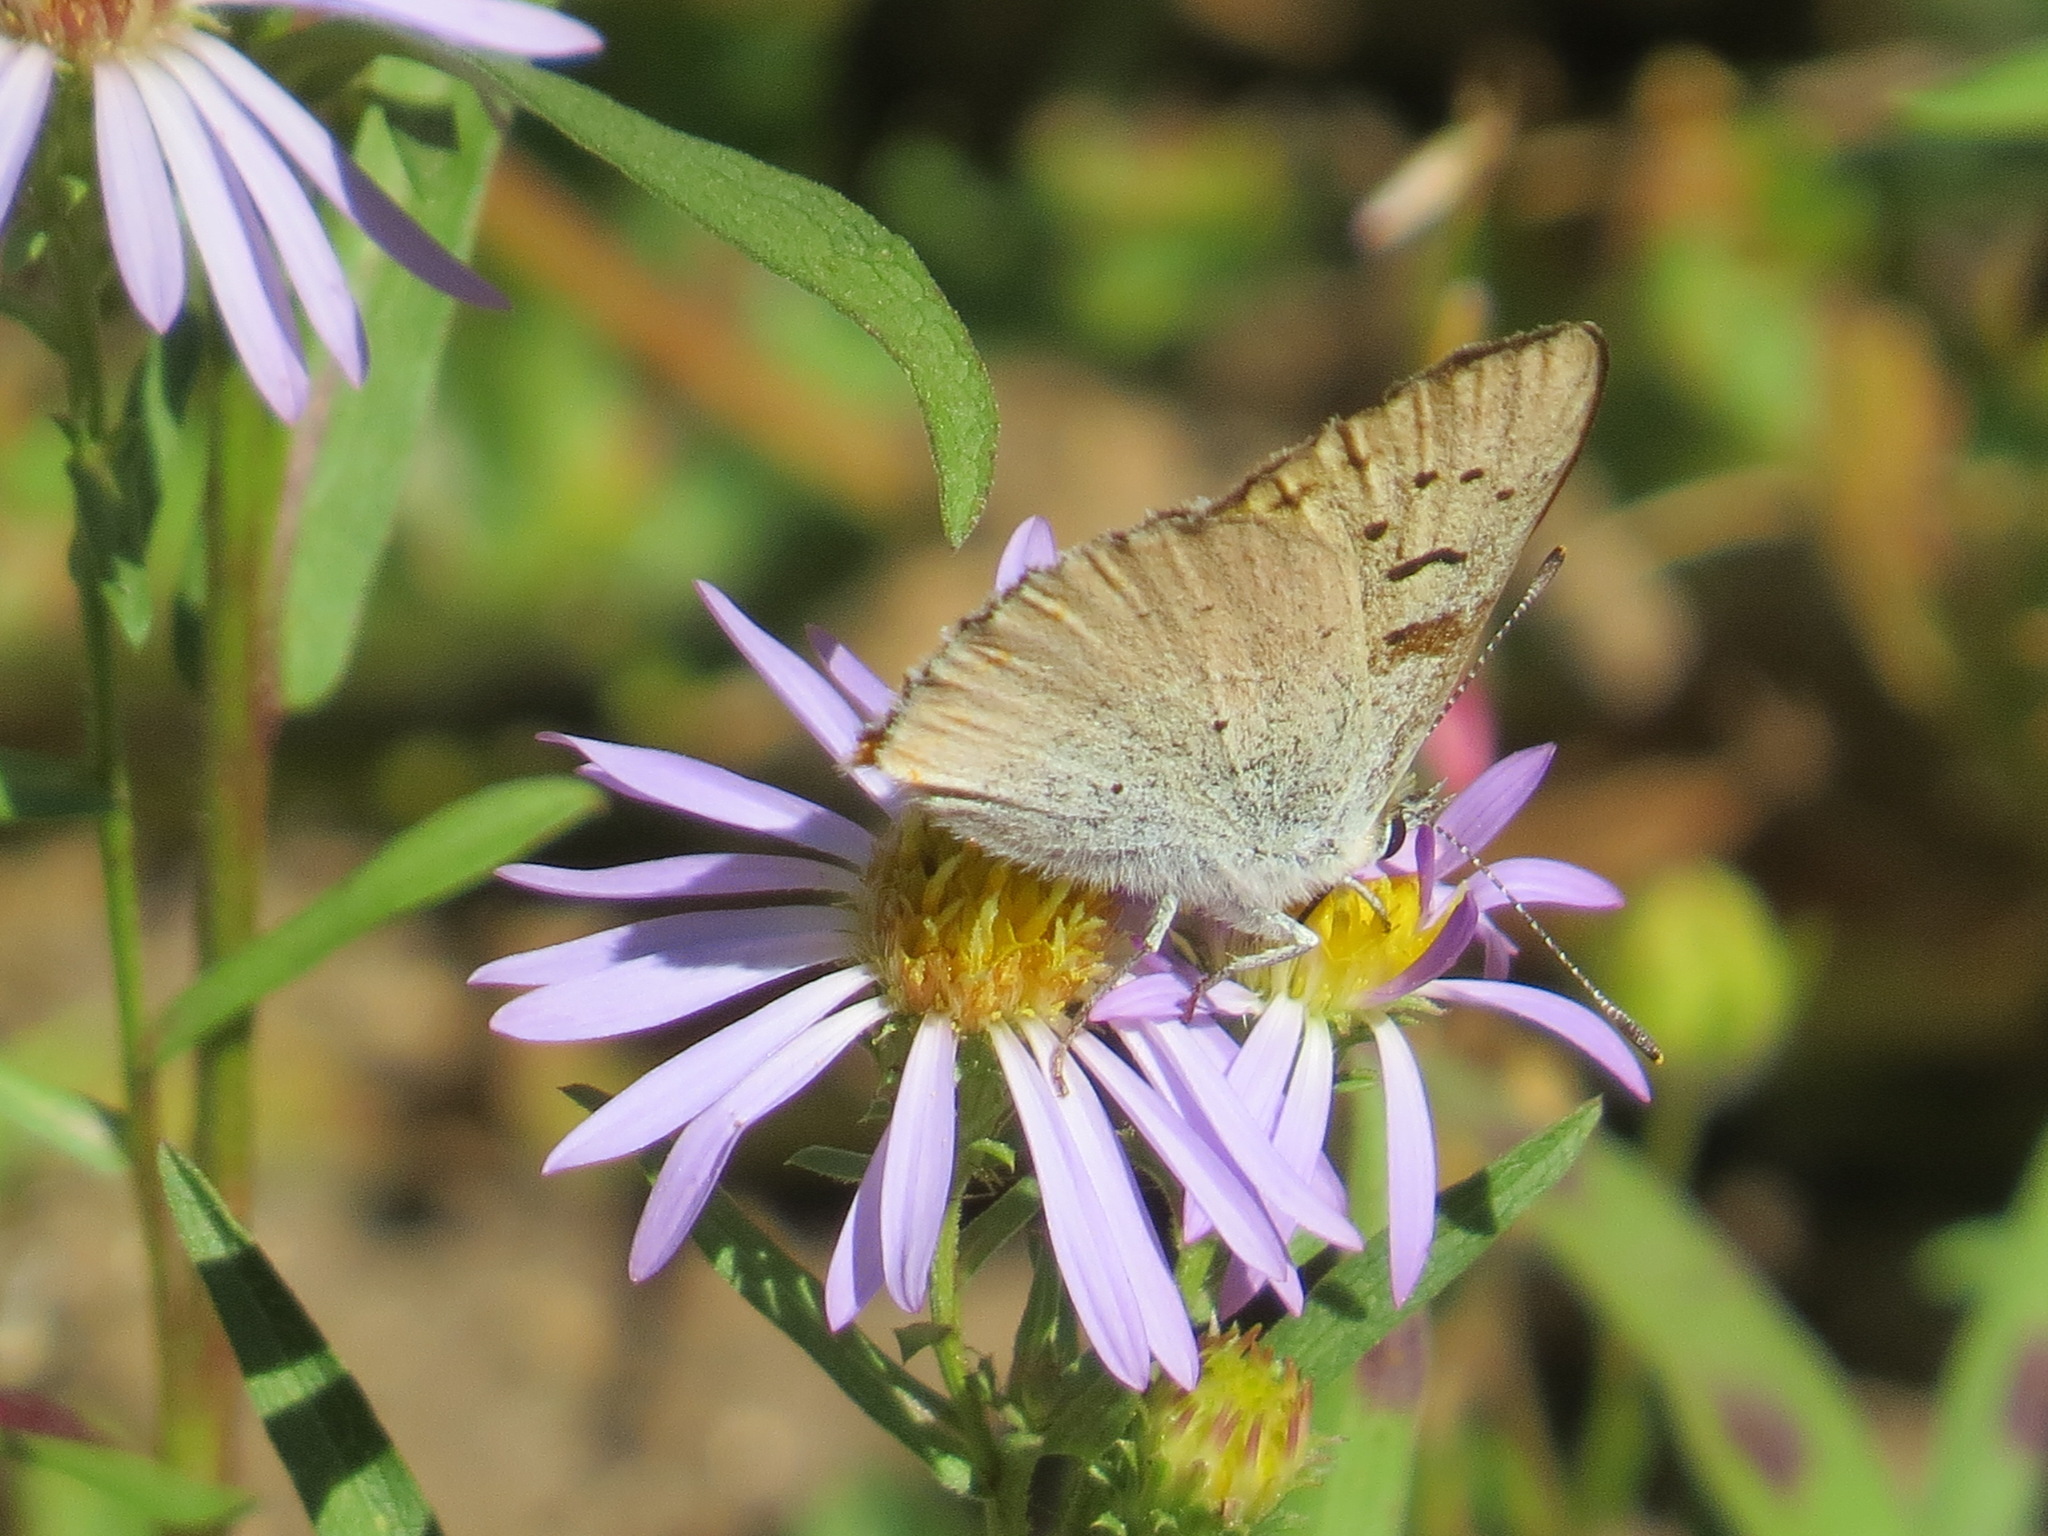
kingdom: Animalia
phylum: Arthropoda
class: Insecta
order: Lepidoptera
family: Lycaenidae
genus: Tharsalea
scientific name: Tharsalea nivalis
